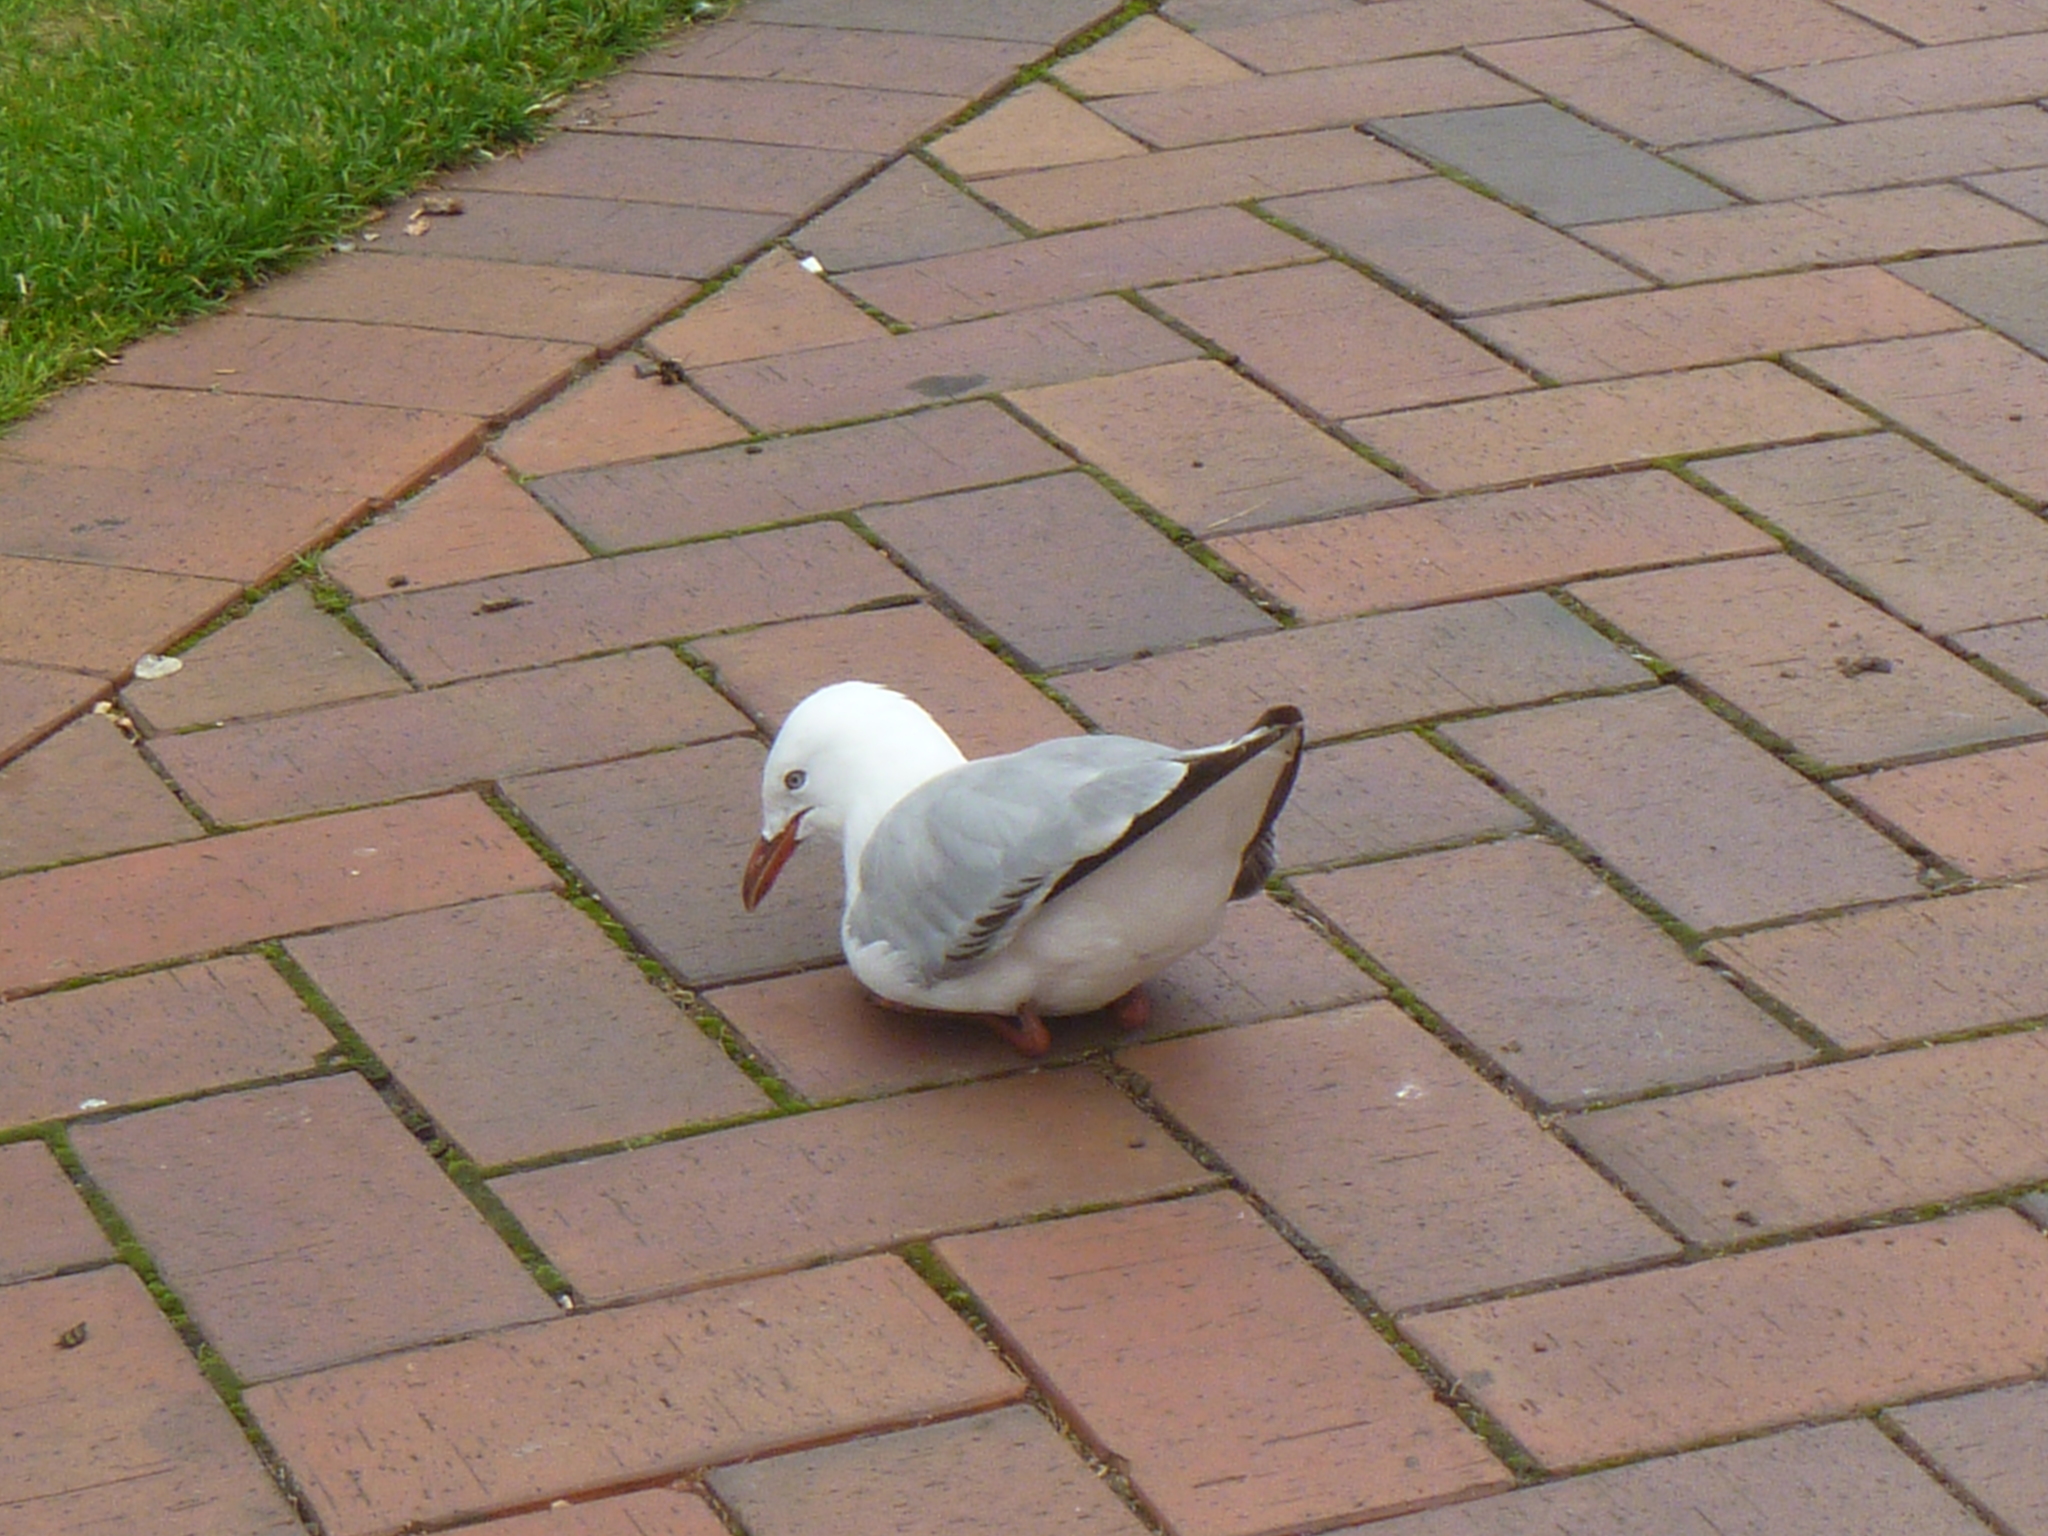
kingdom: Animalia
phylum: Chordata
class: Aves
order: Charadriiformes
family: Laridae
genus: Chroicocephalus
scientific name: Chroicocephalus novaehollandiae
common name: Silver gull
